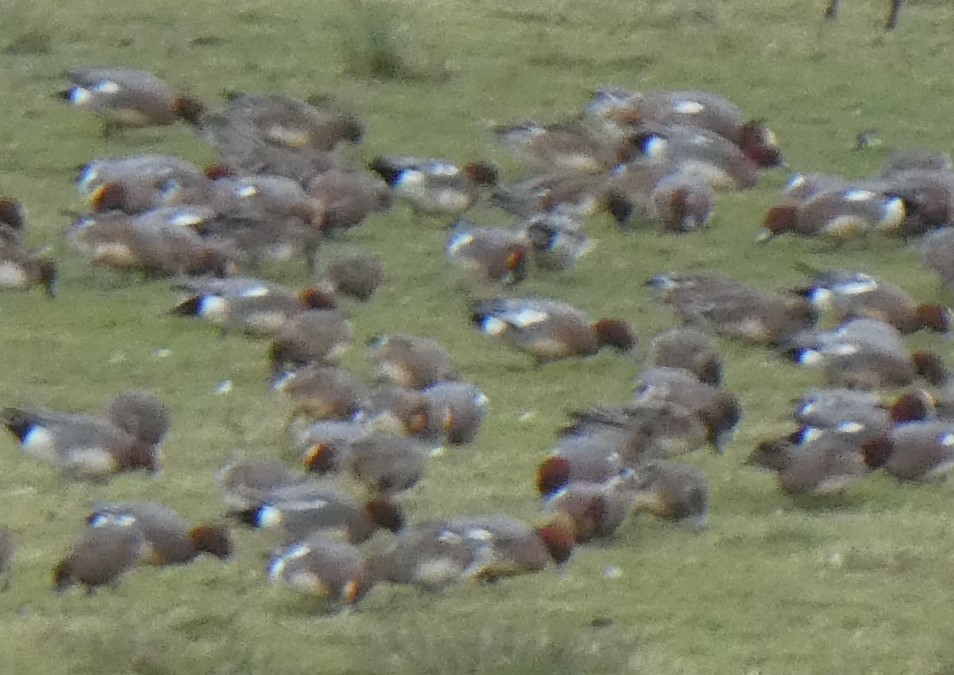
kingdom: Animalia
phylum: Chordata
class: Aves
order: Anseriformes
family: Anatidae
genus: Mareca
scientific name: Mareca penelope
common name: Eurasian wigeon
